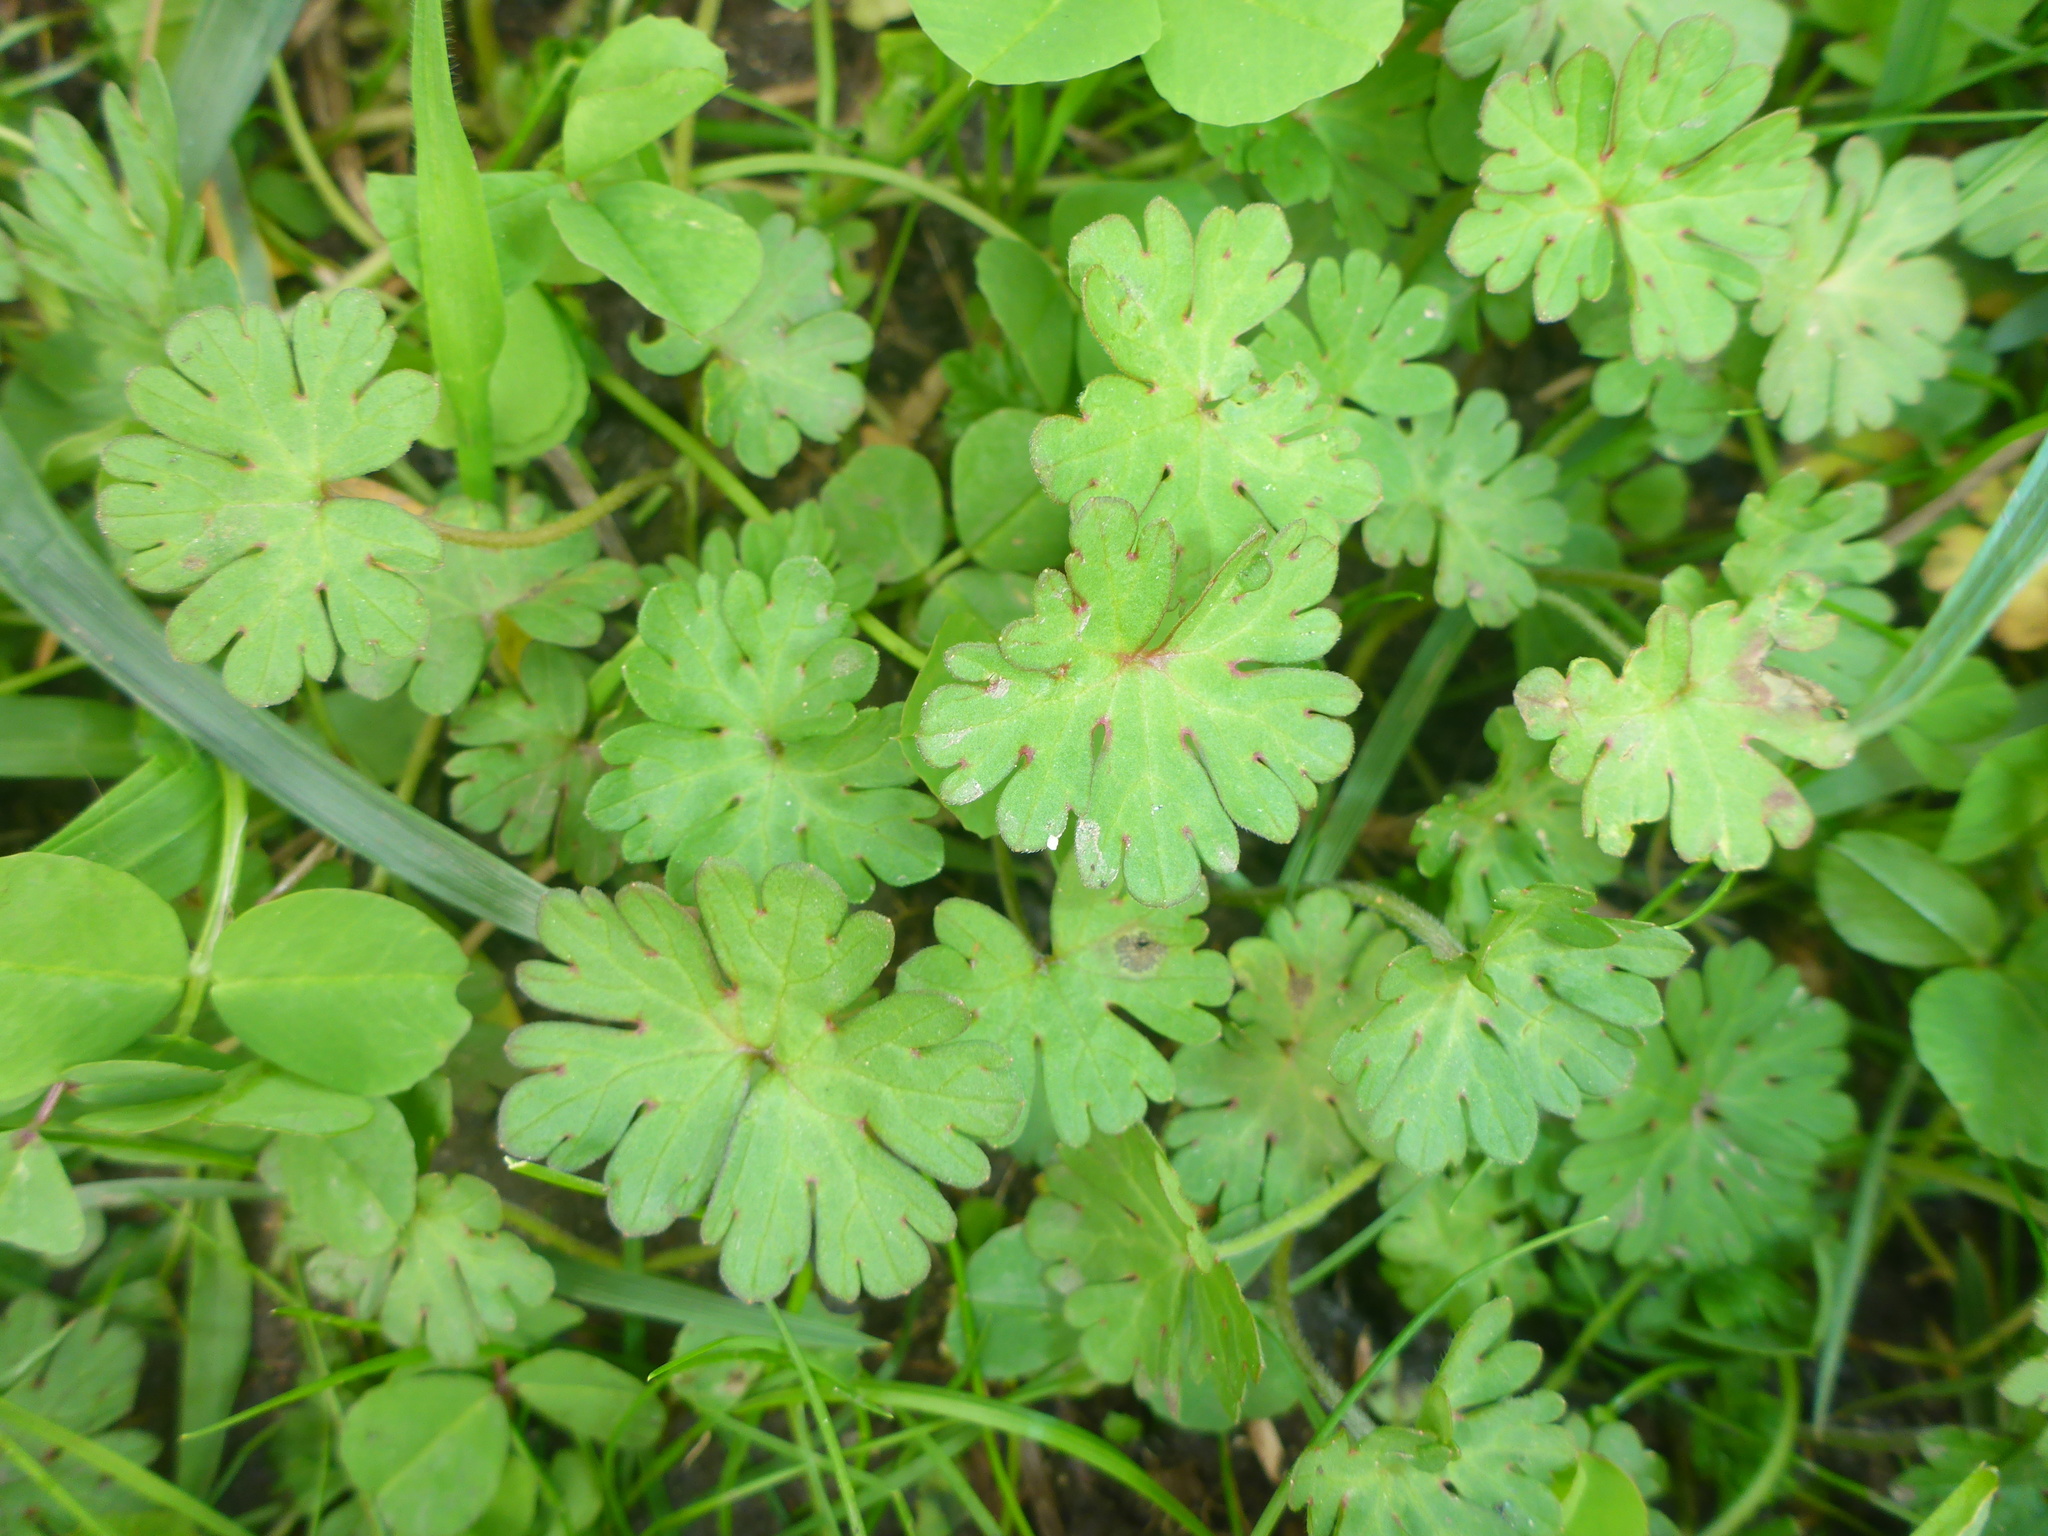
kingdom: Plantae
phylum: Tracheophyta
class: Magnoliopsida
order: Geraniales
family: Geraniaceae
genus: Geranium
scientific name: Geranium
